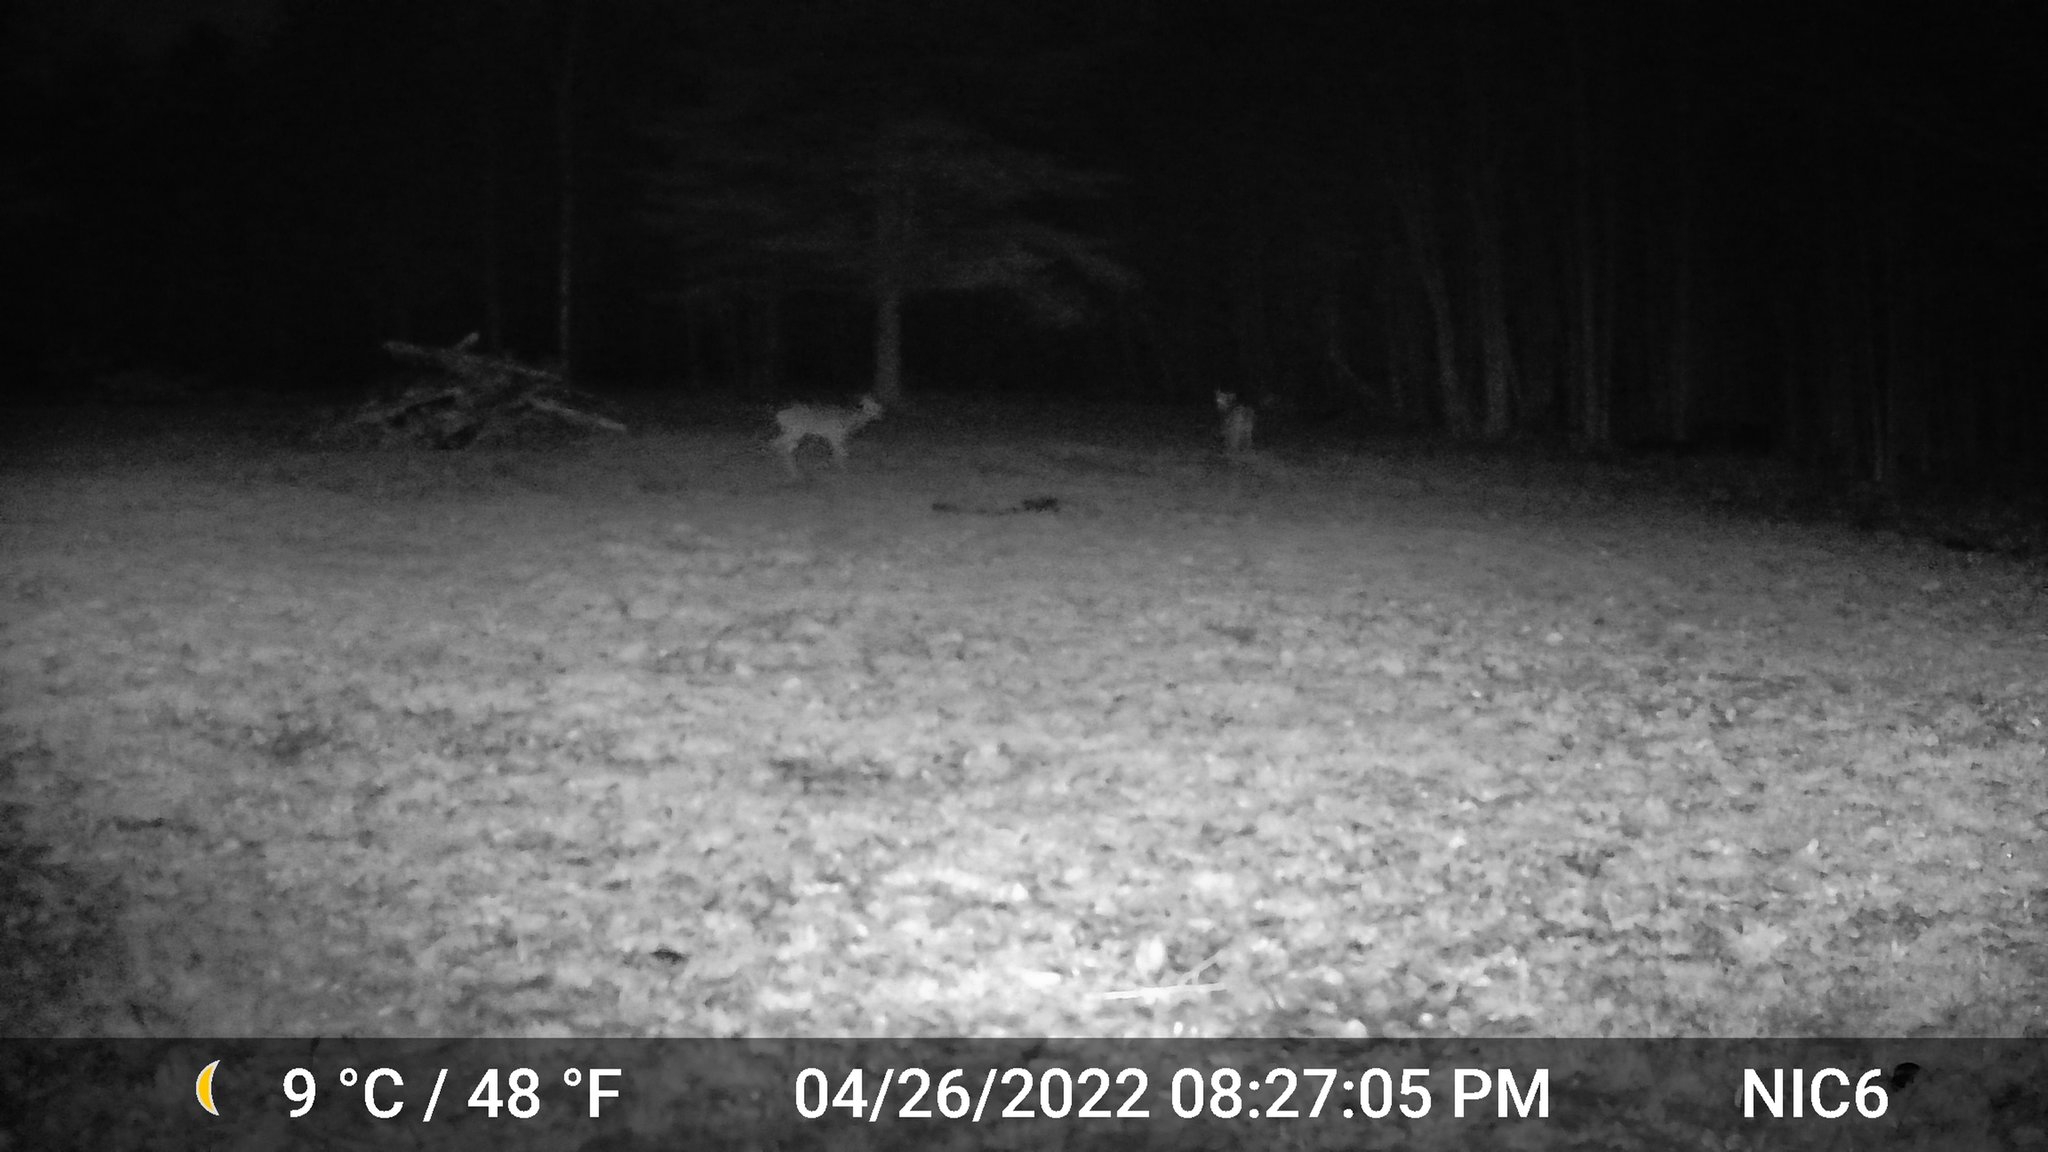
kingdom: Animalia
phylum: Chordata
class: Mammalia
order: Artiodactyla
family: Cervidae
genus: Odocoileus
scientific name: Odocoileus virginianus
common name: White-tailed deer
